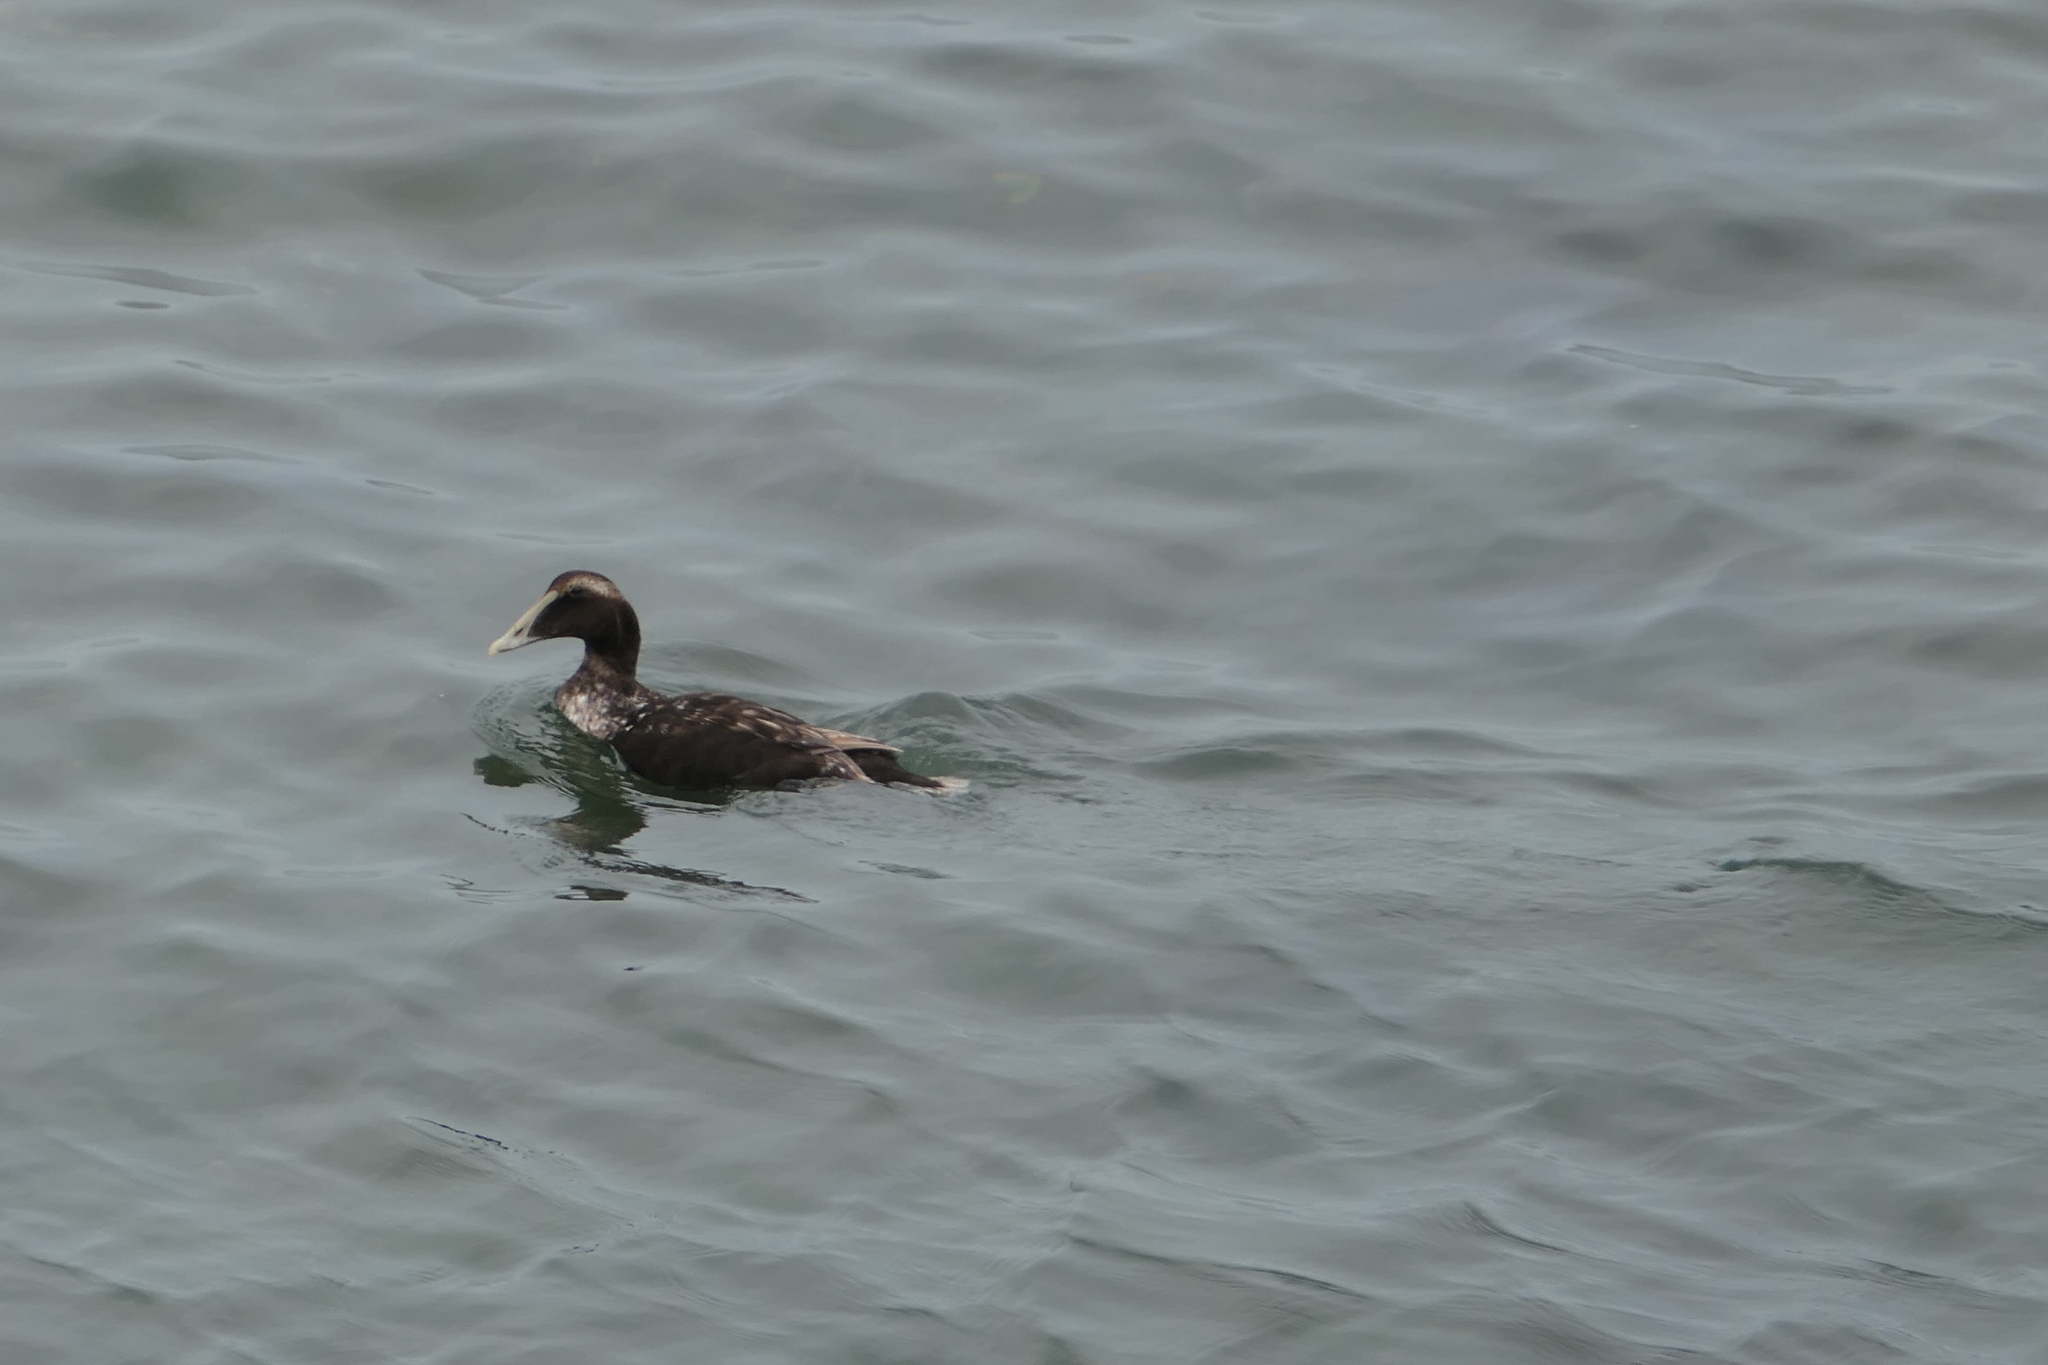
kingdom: Animalia
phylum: Chordata
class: Aves
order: Anseriformes
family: Anatidae
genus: Somateria
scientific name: Somateria mollissima
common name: Common eider
